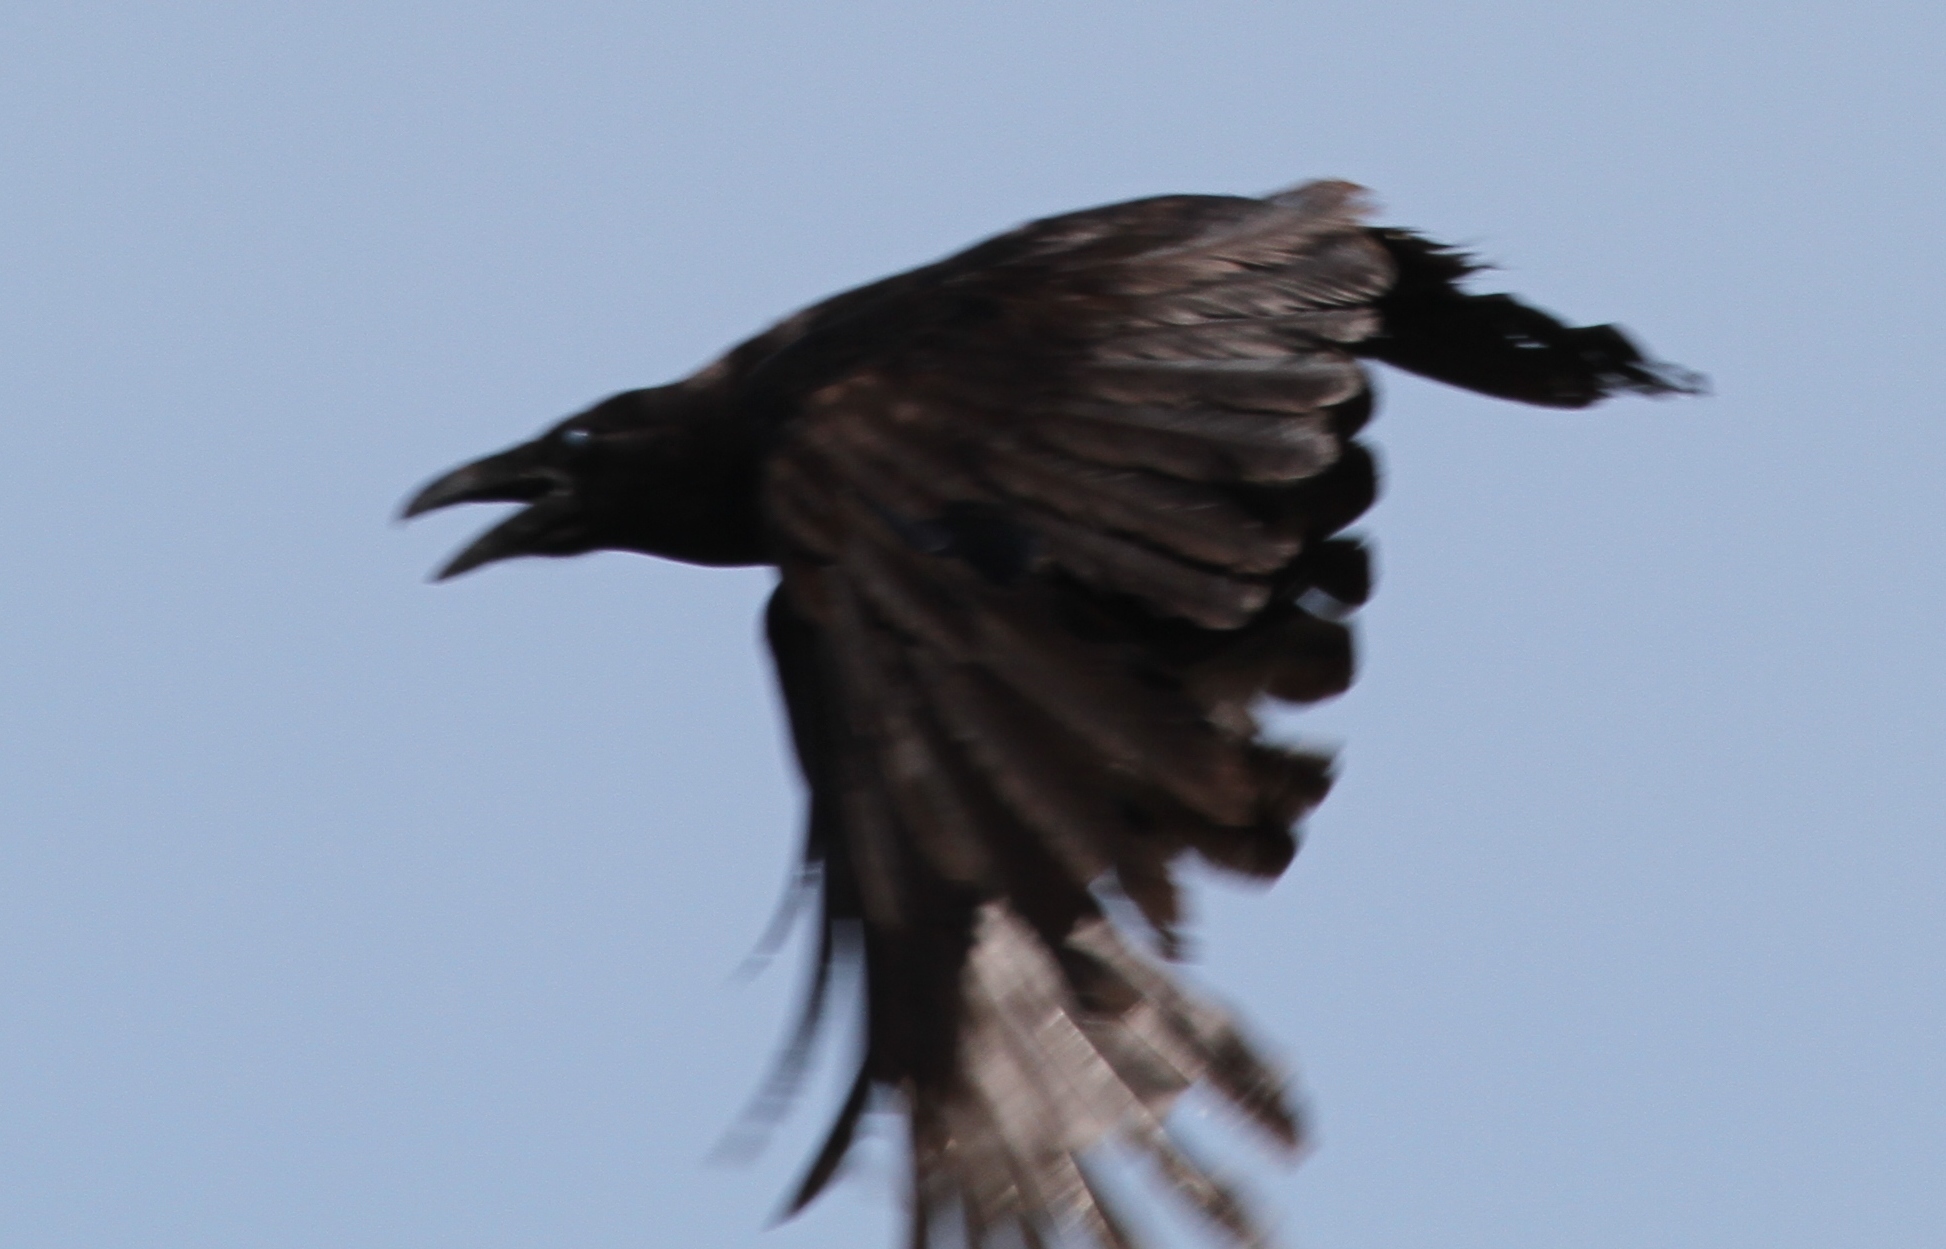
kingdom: Animalia
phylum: Chordata
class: Aves
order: Passeriformes
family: Corvidae
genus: Corvus
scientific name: Corvus corax
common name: Common raven
